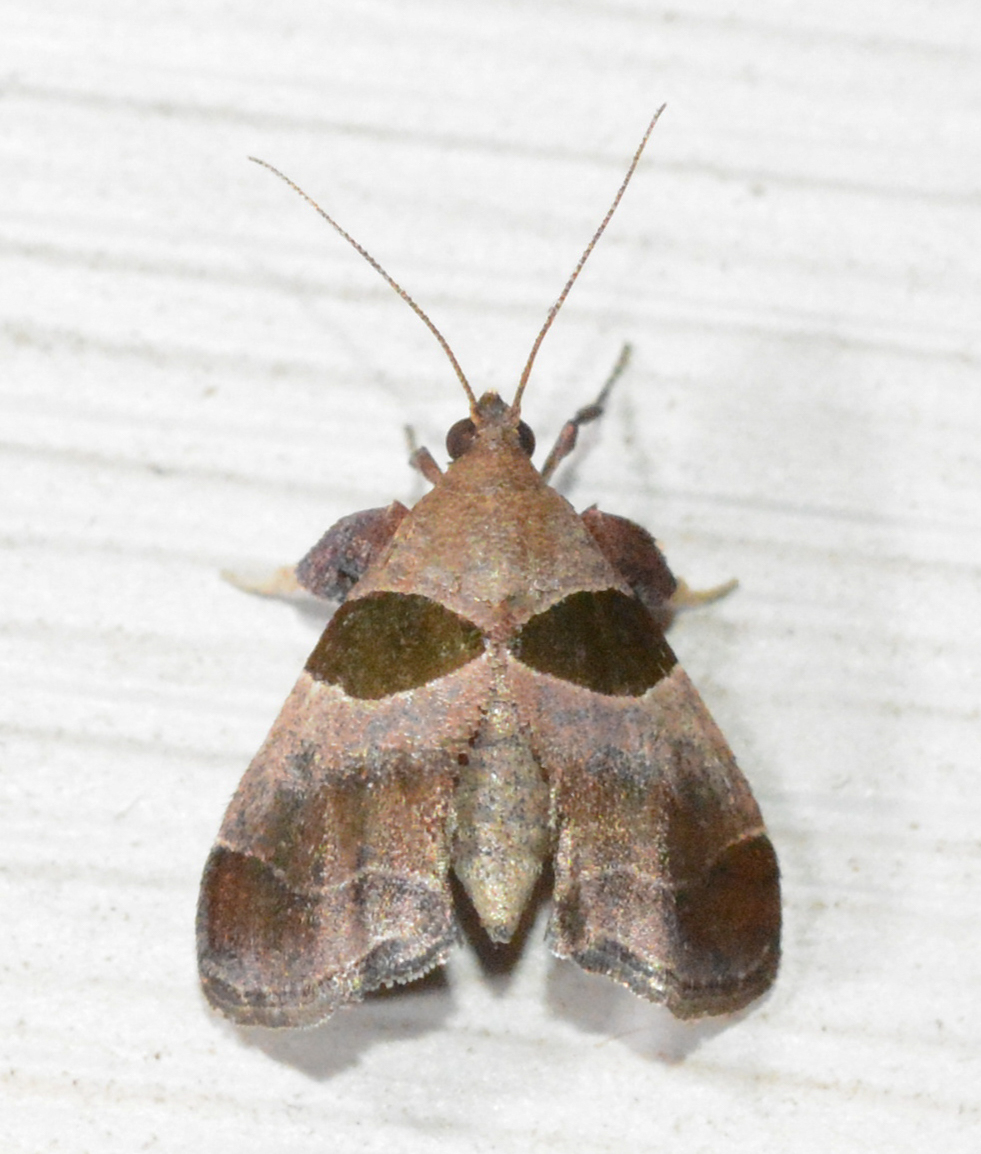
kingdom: Animalia
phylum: Arthropoda
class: Insecta
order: Lepidoptera
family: Pyralidae
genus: Tosale
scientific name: Tosale oviplagalis
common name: Dimorphic tosale moth
